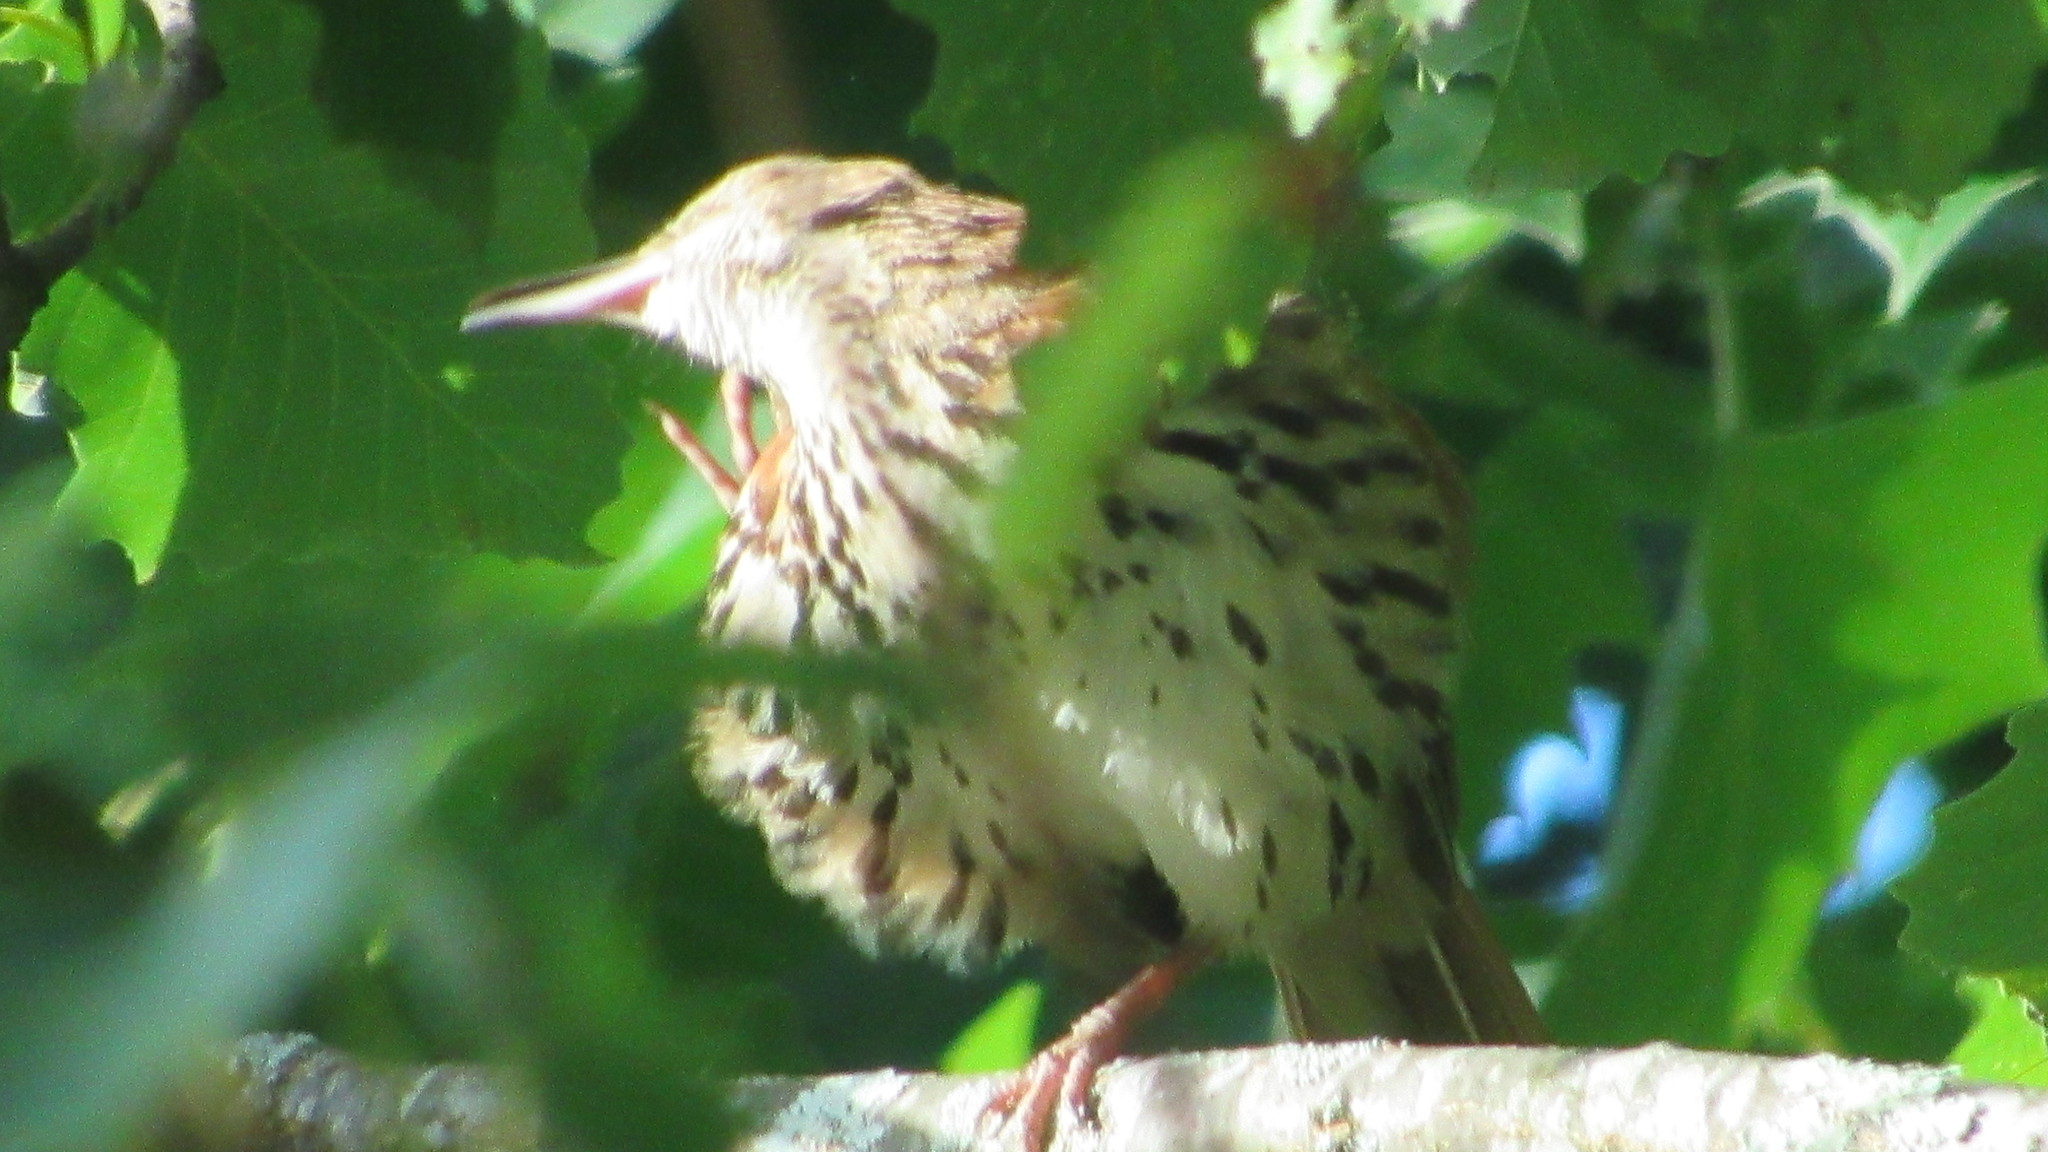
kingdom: Animalia
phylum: Chordata
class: Aves
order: Passeriformes
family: Mimidae
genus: Toxostoma
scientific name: Toxostoma rufum
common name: Brown thrasher
